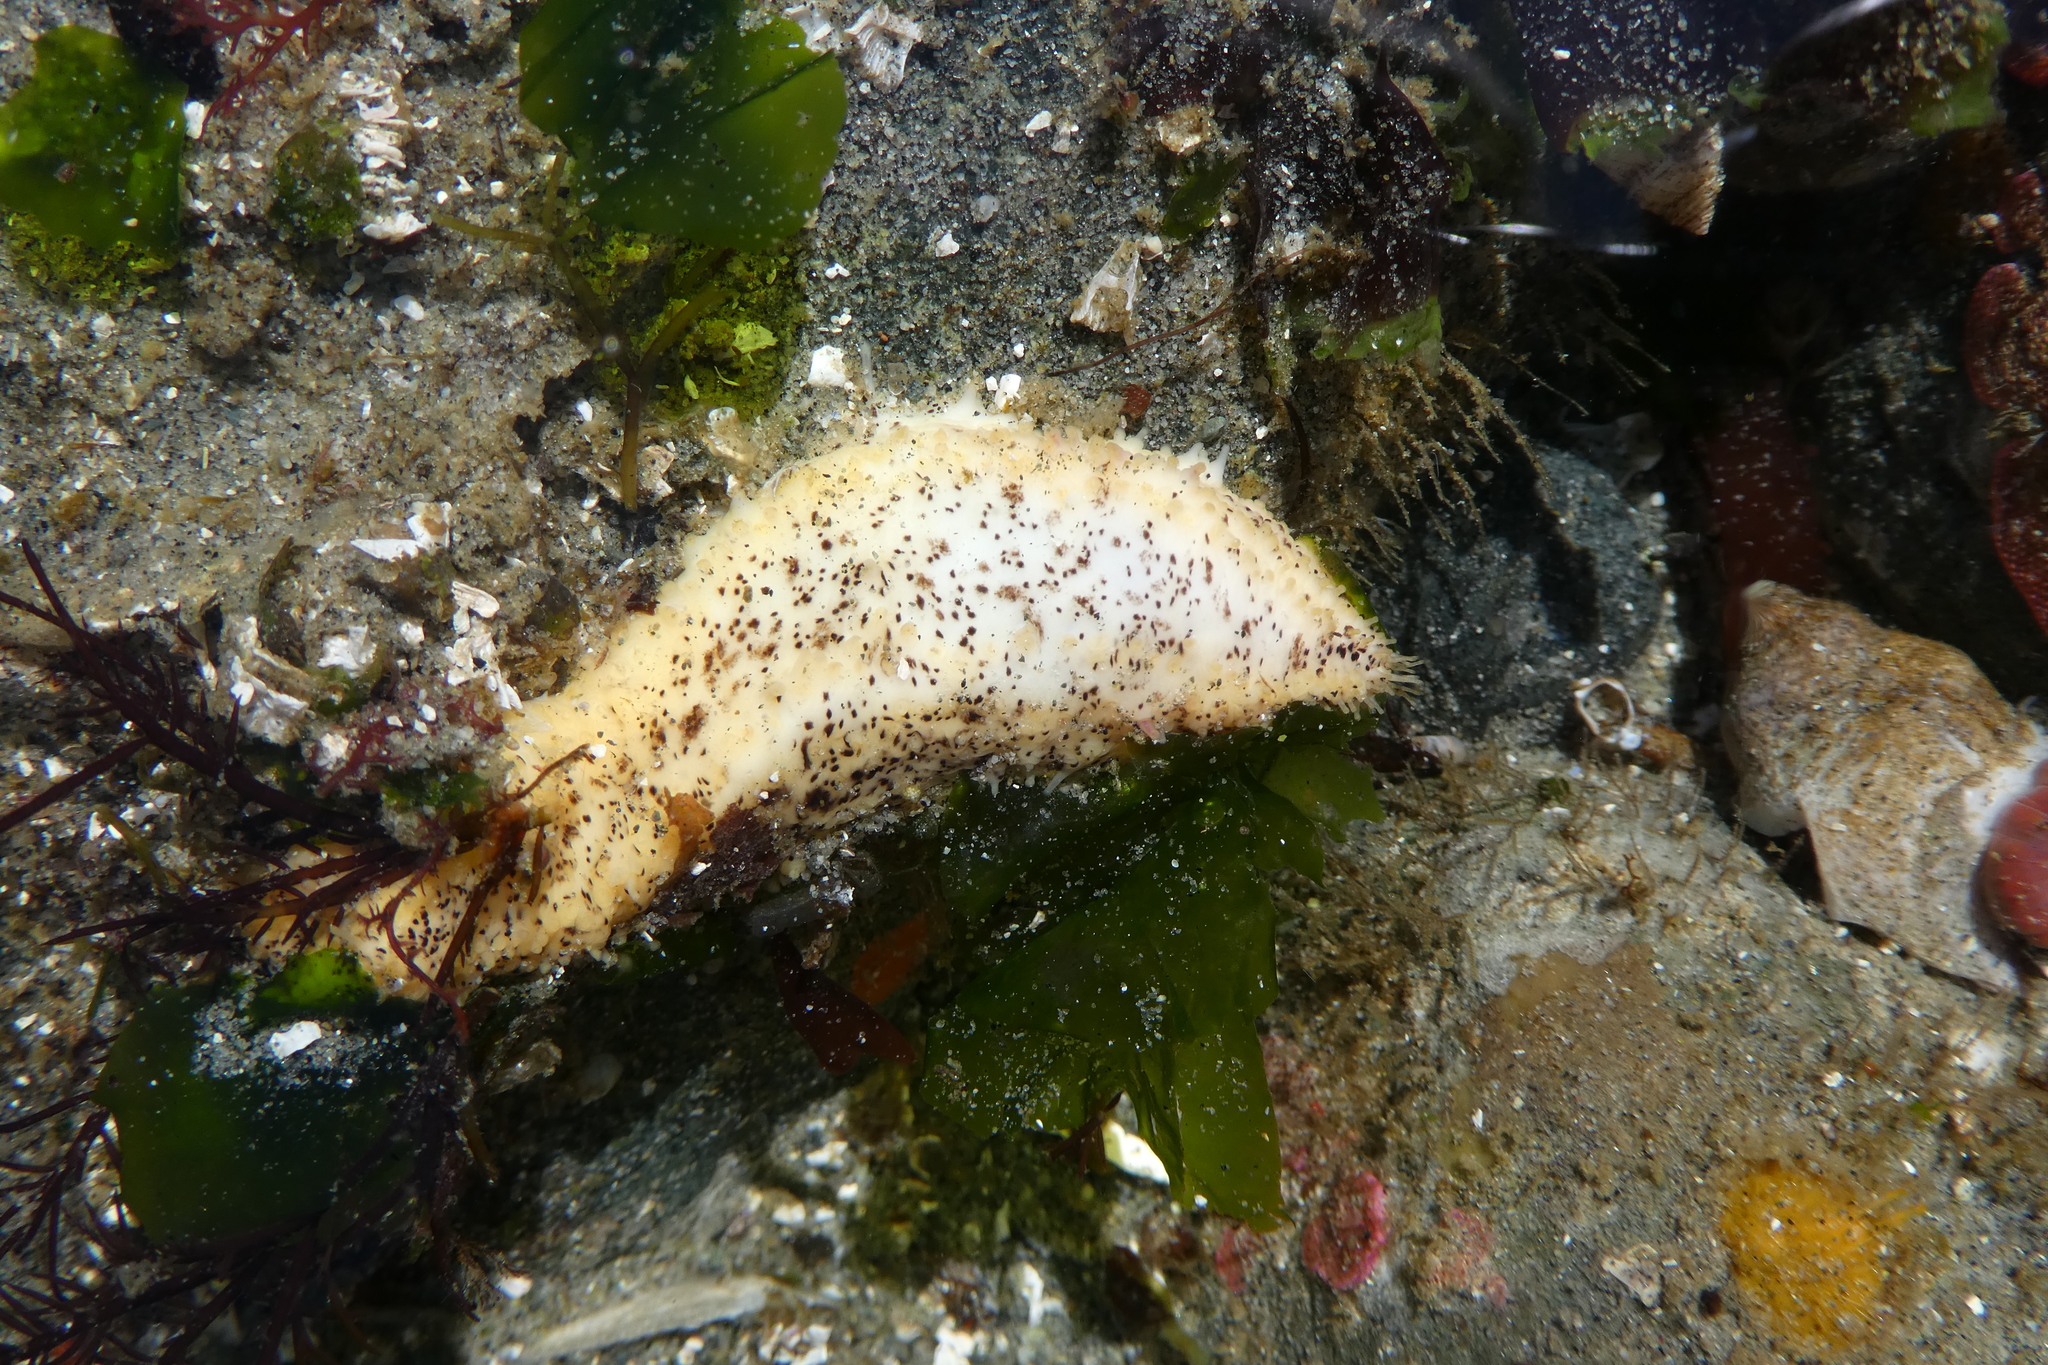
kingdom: Animalia
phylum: Echinodermata
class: Holothuroidea
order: Dendrochirotida
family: Cucumariidae
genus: Cucumaria
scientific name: Cucumaria piperata
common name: Peppered sea cucumber
